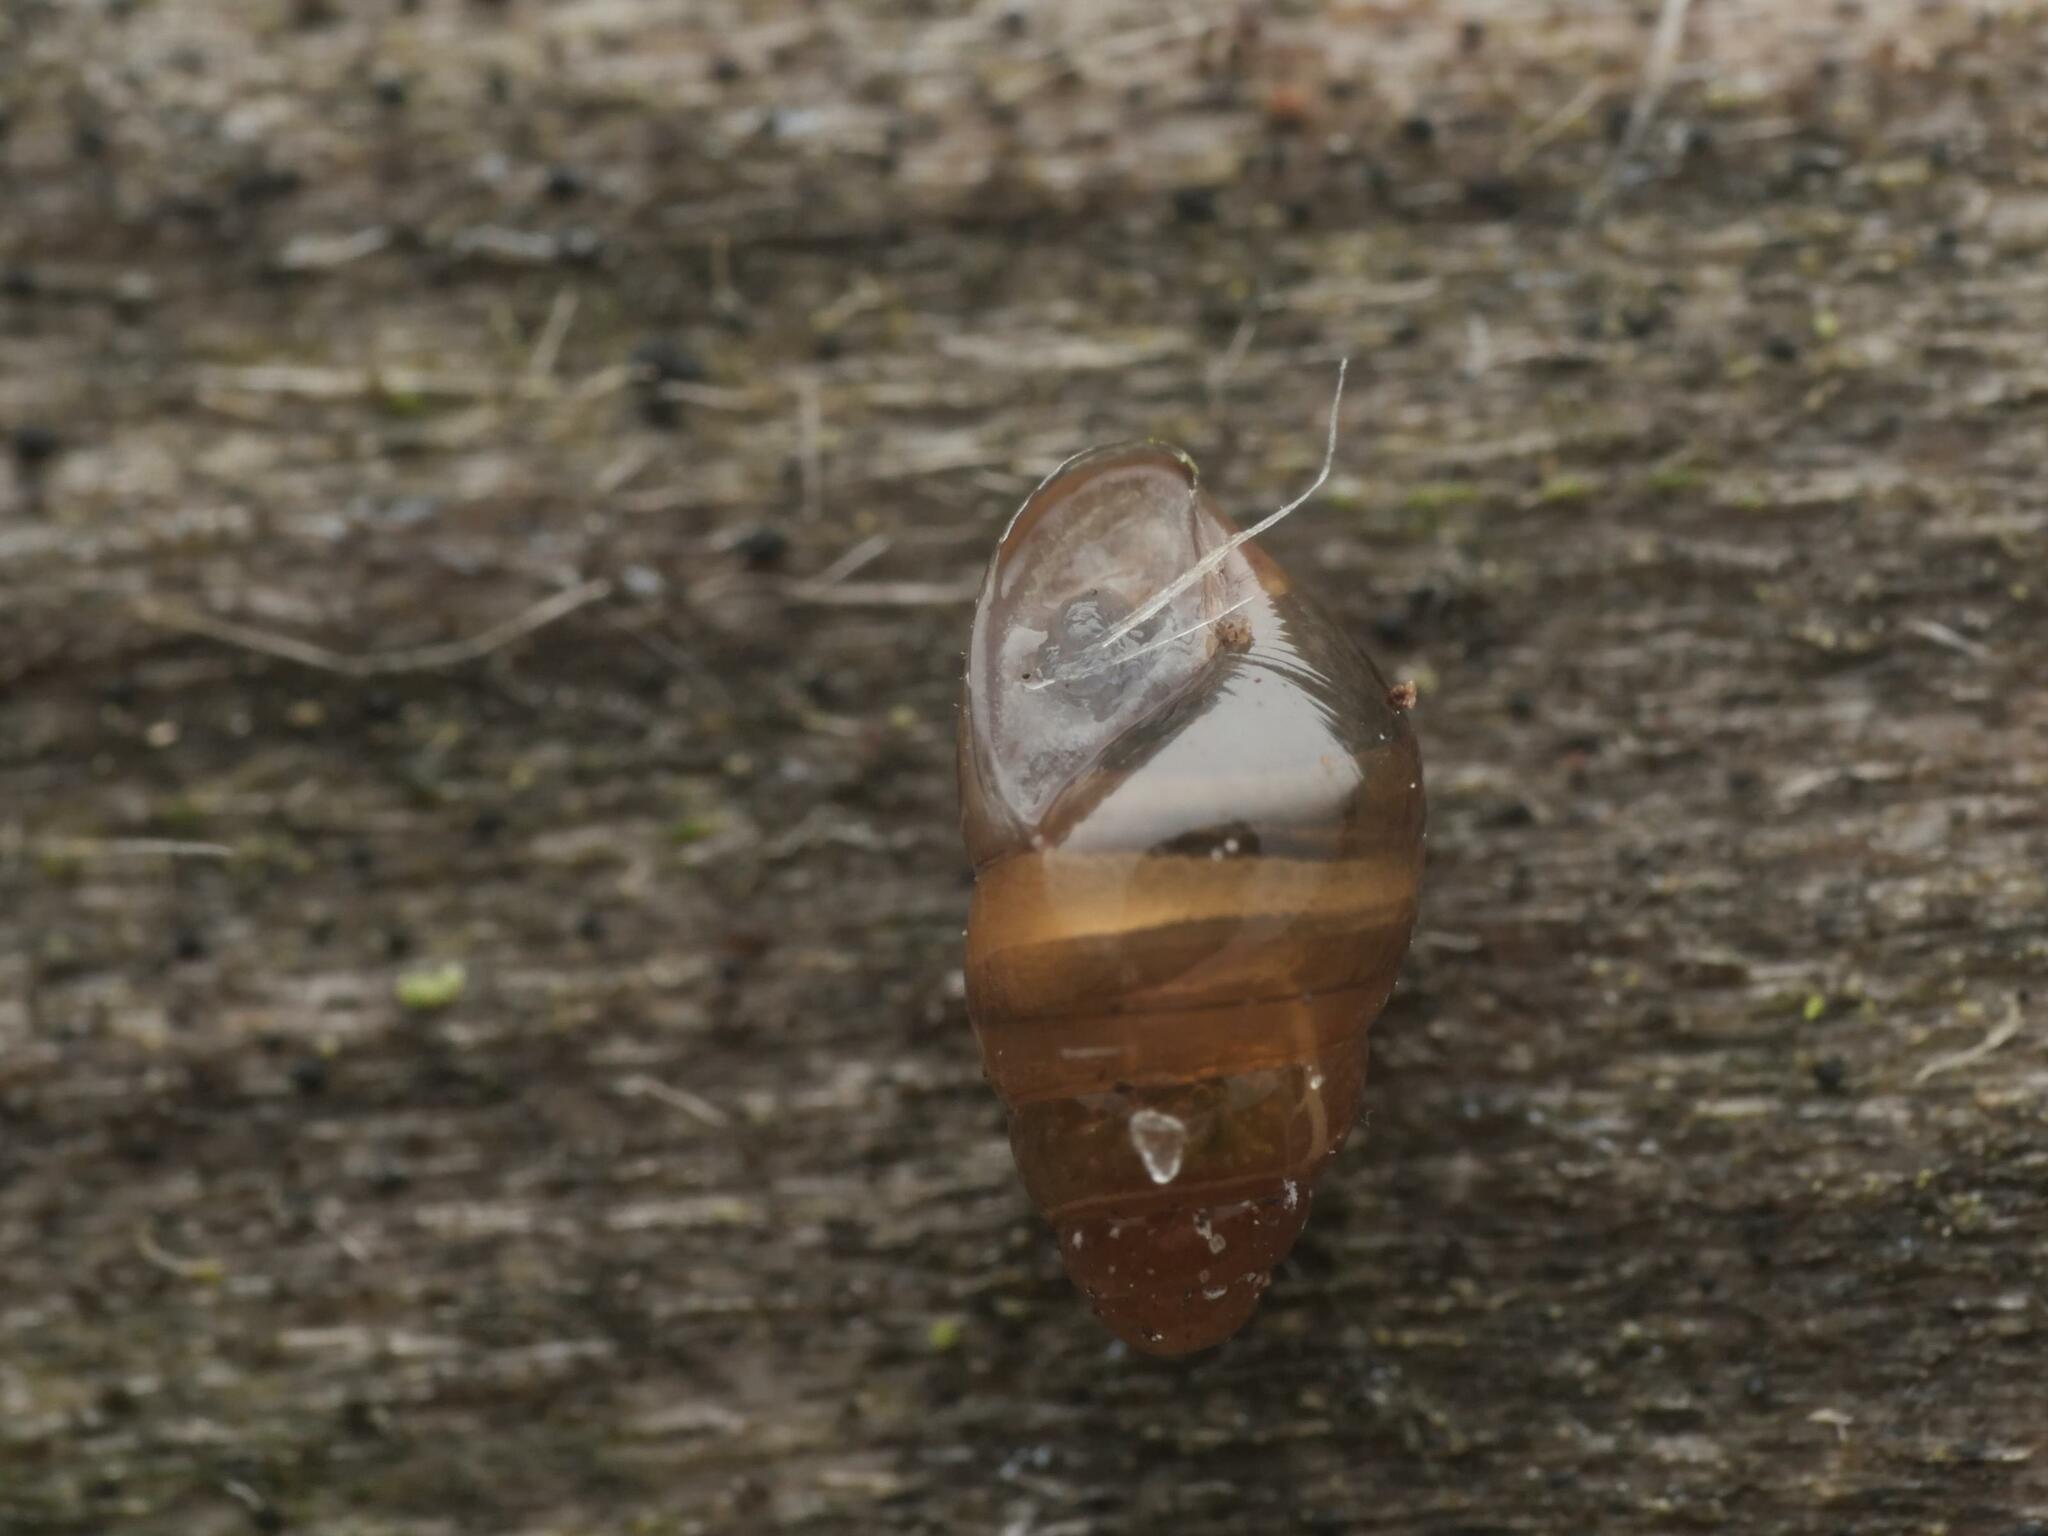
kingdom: Animalia
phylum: Mollusca
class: Gastropoda
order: Stylommatophora
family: Cochlicopidae
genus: Cochlicopa
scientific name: Cochlicopa lubrica
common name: Glossy pillar snail
